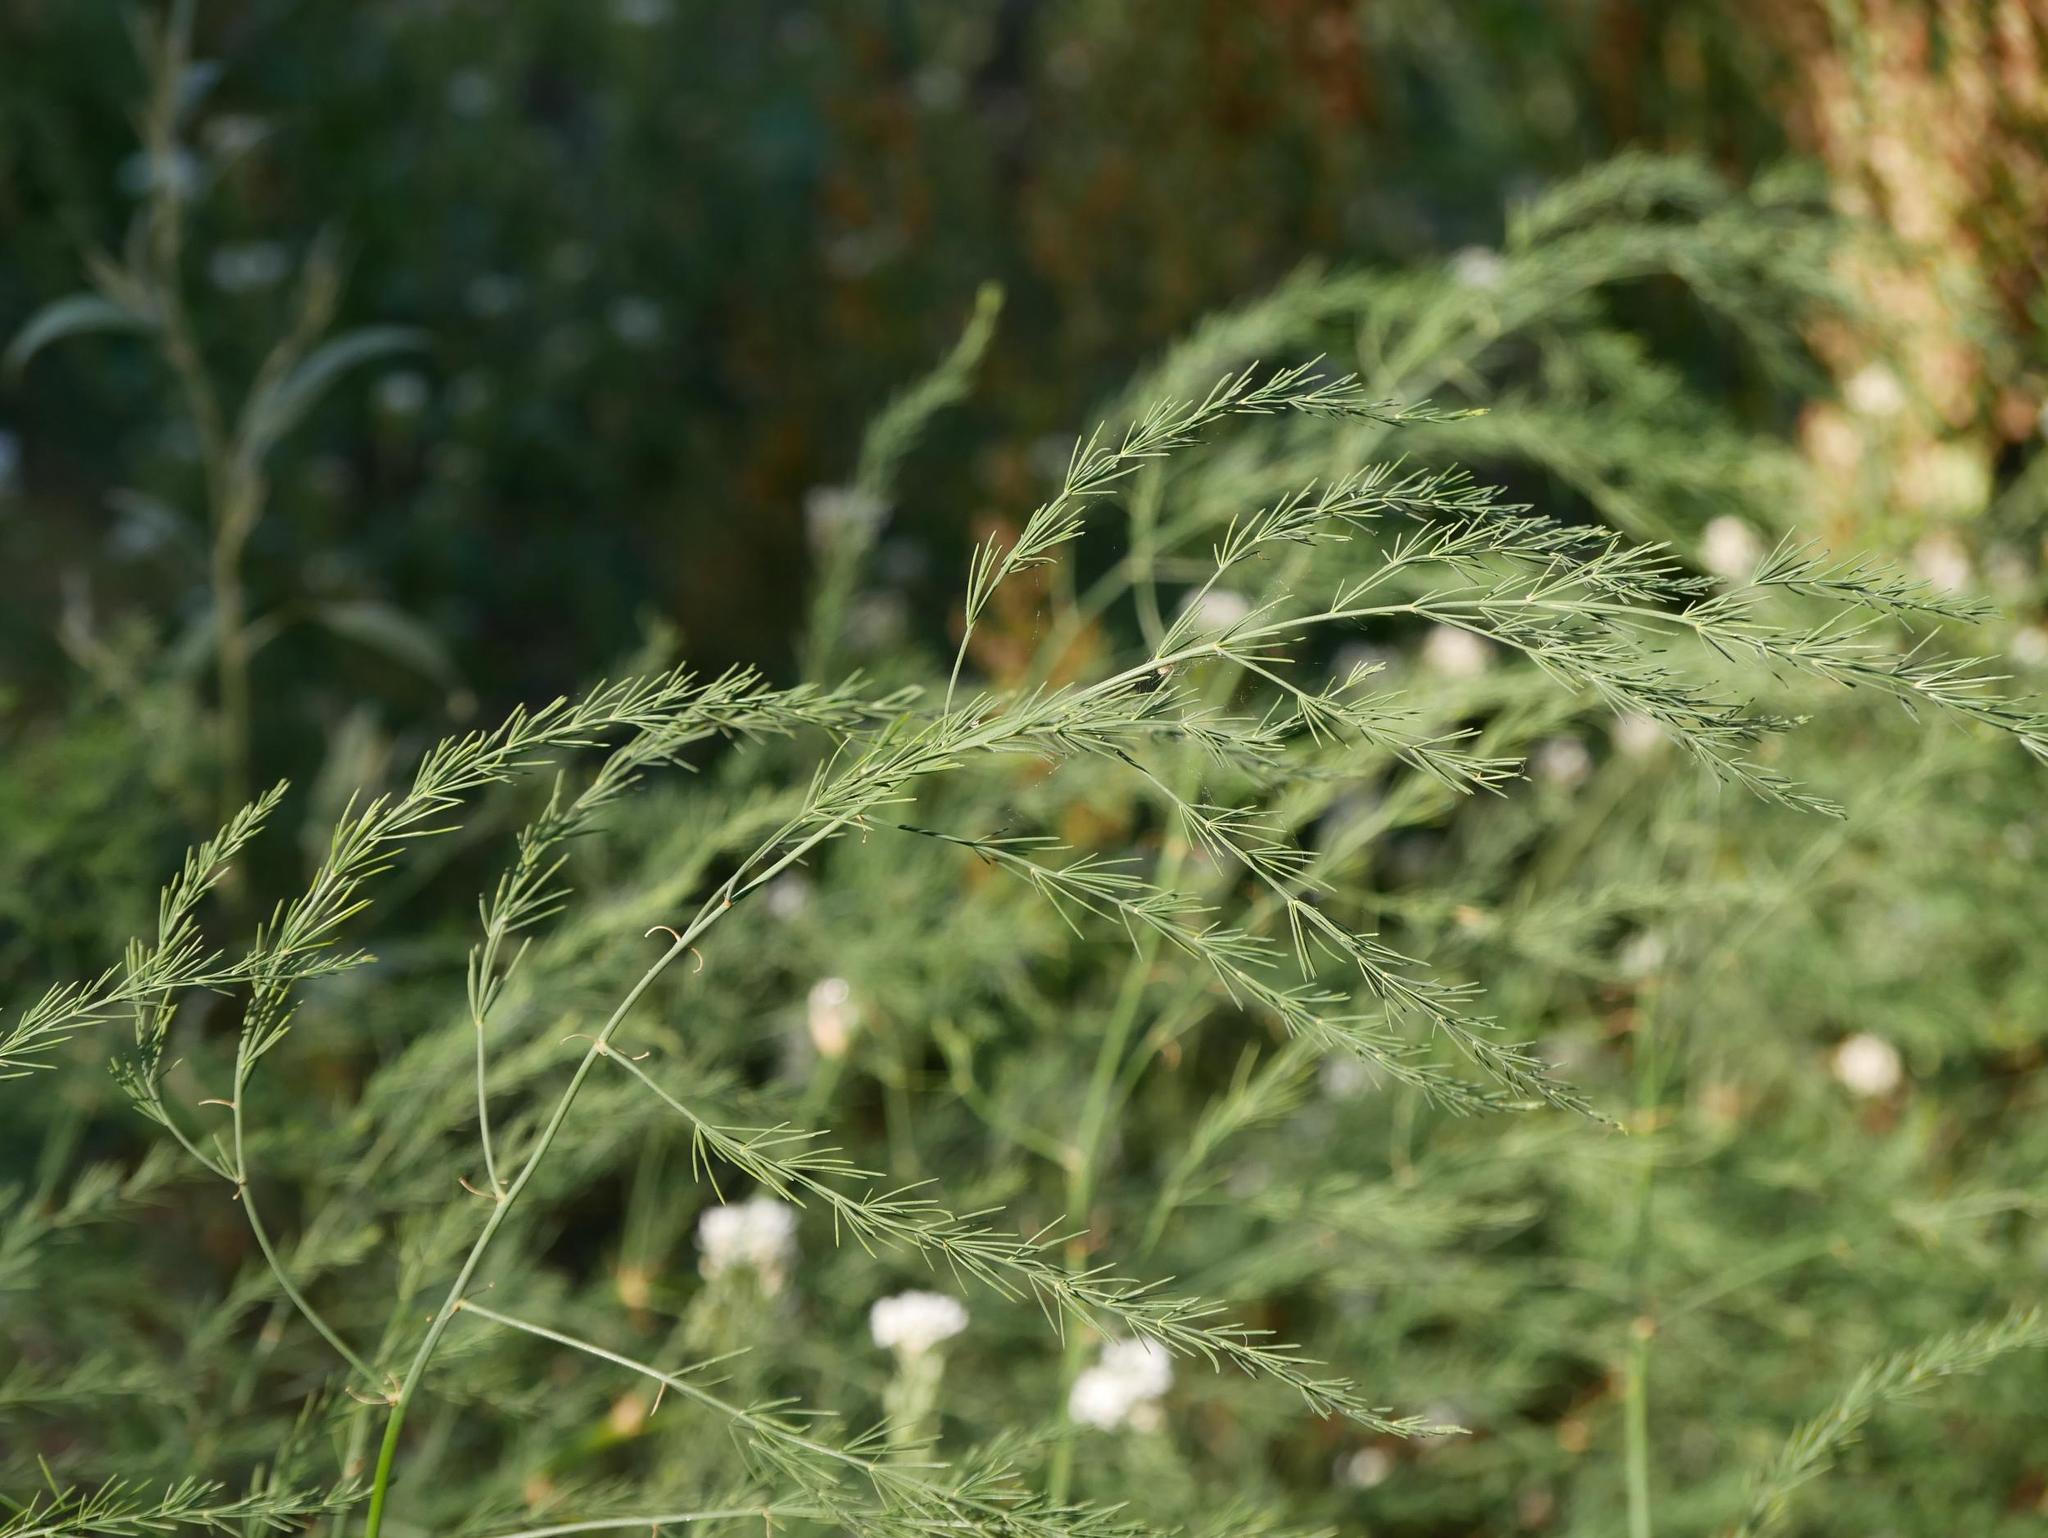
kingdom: Plantae
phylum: Tracheophyta
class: Liliopsida
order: Asparagales
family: Asparagaceae
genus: Asparagus
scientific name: Asparagus officinalis
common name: Garden asparagus
